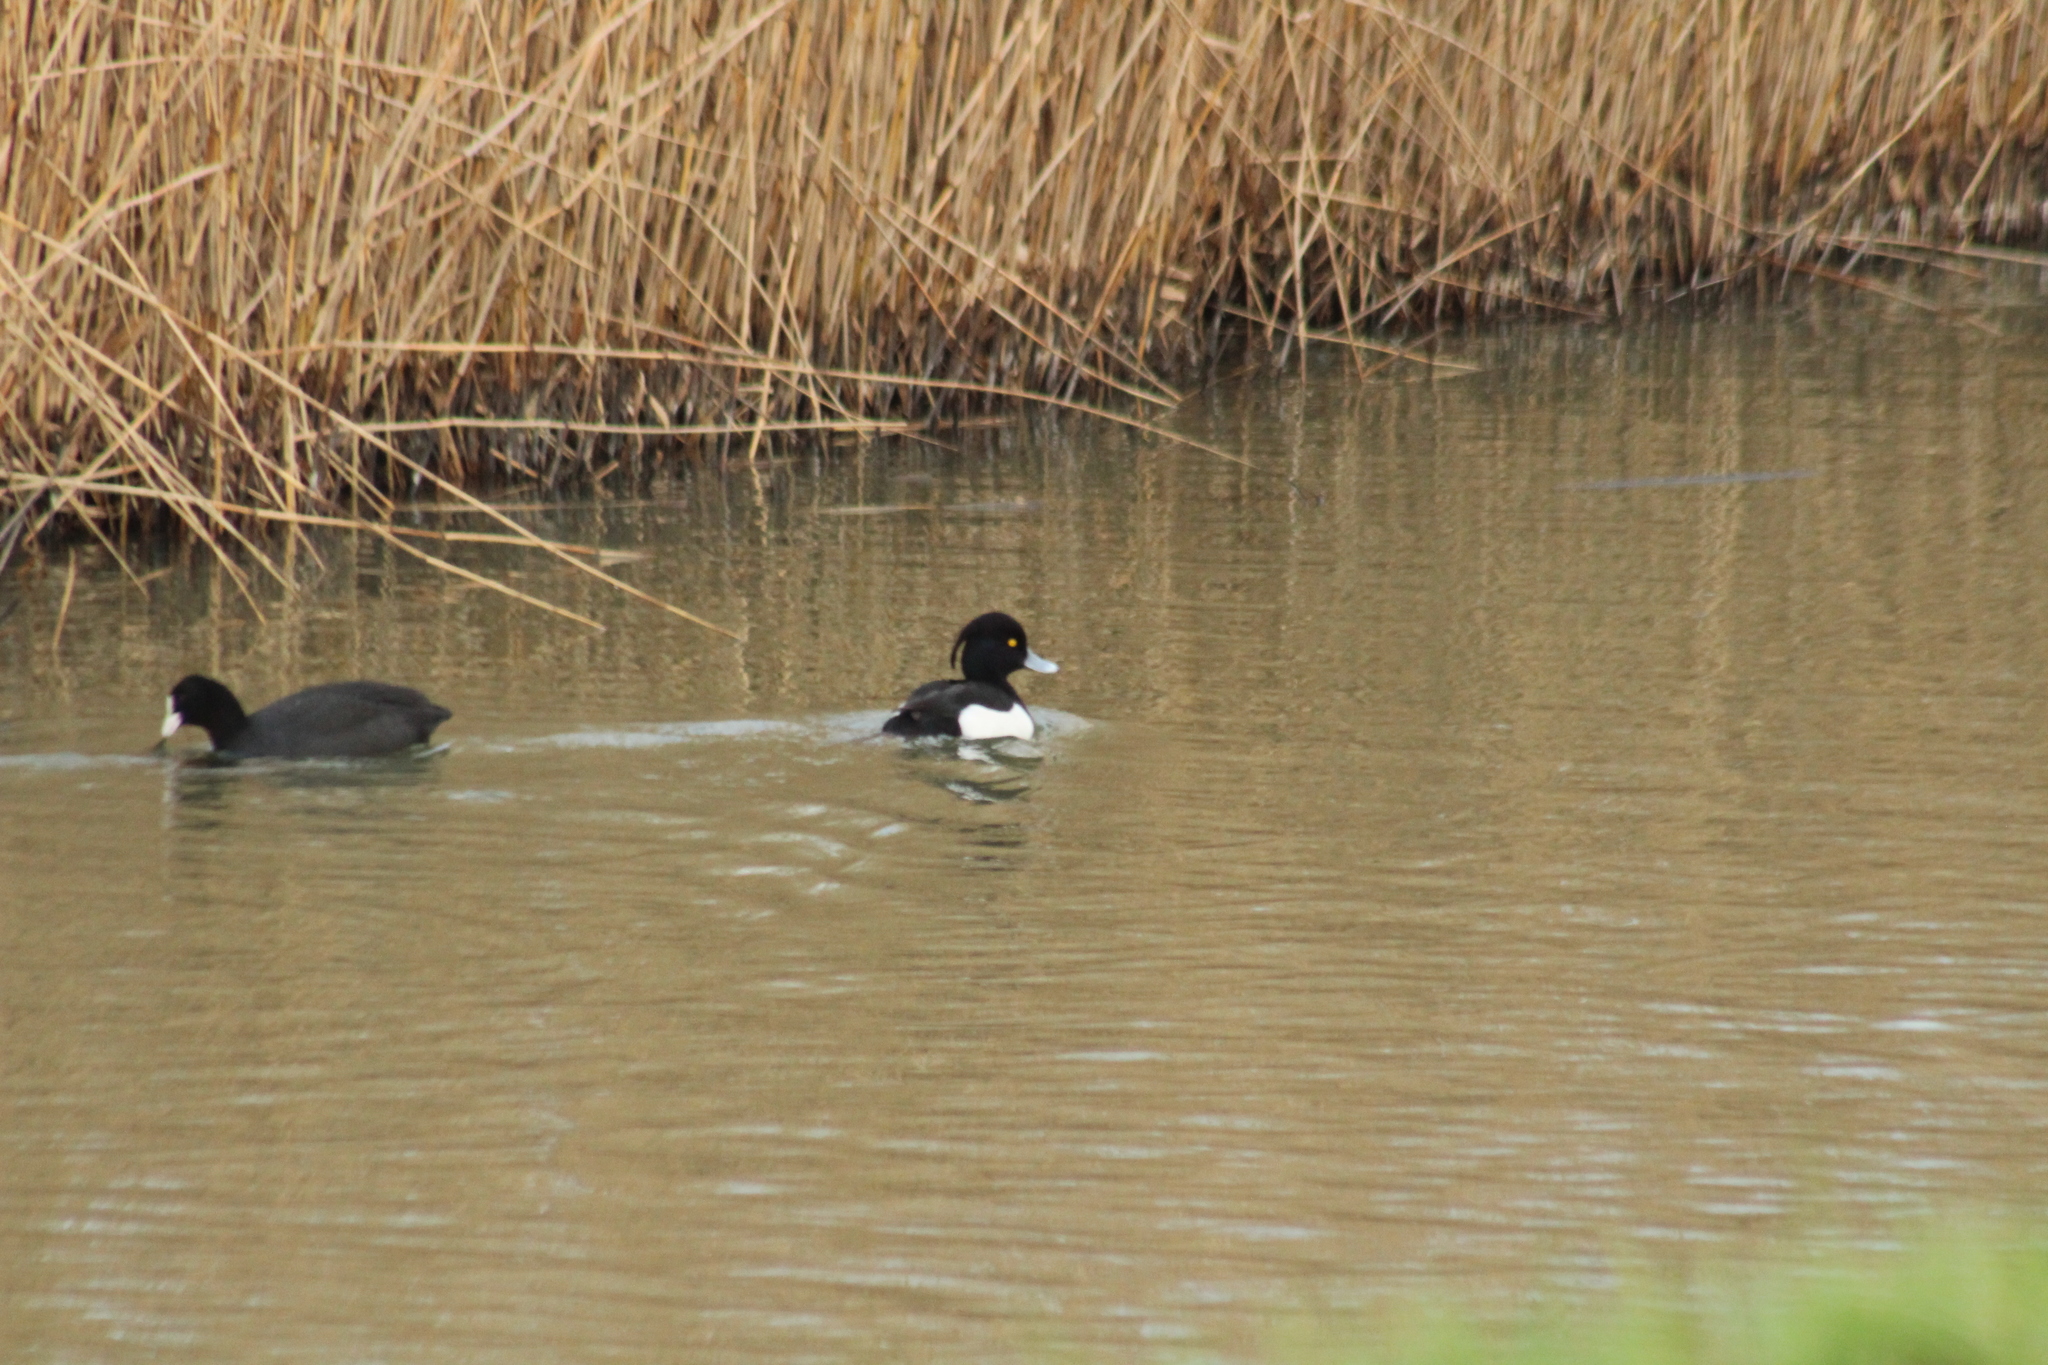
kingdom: Animalia
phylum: Chordata
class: Aves
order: Anseriformes
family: Anatidae
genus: Aythya
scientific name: Aythya fuligula
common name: Tufted duck
